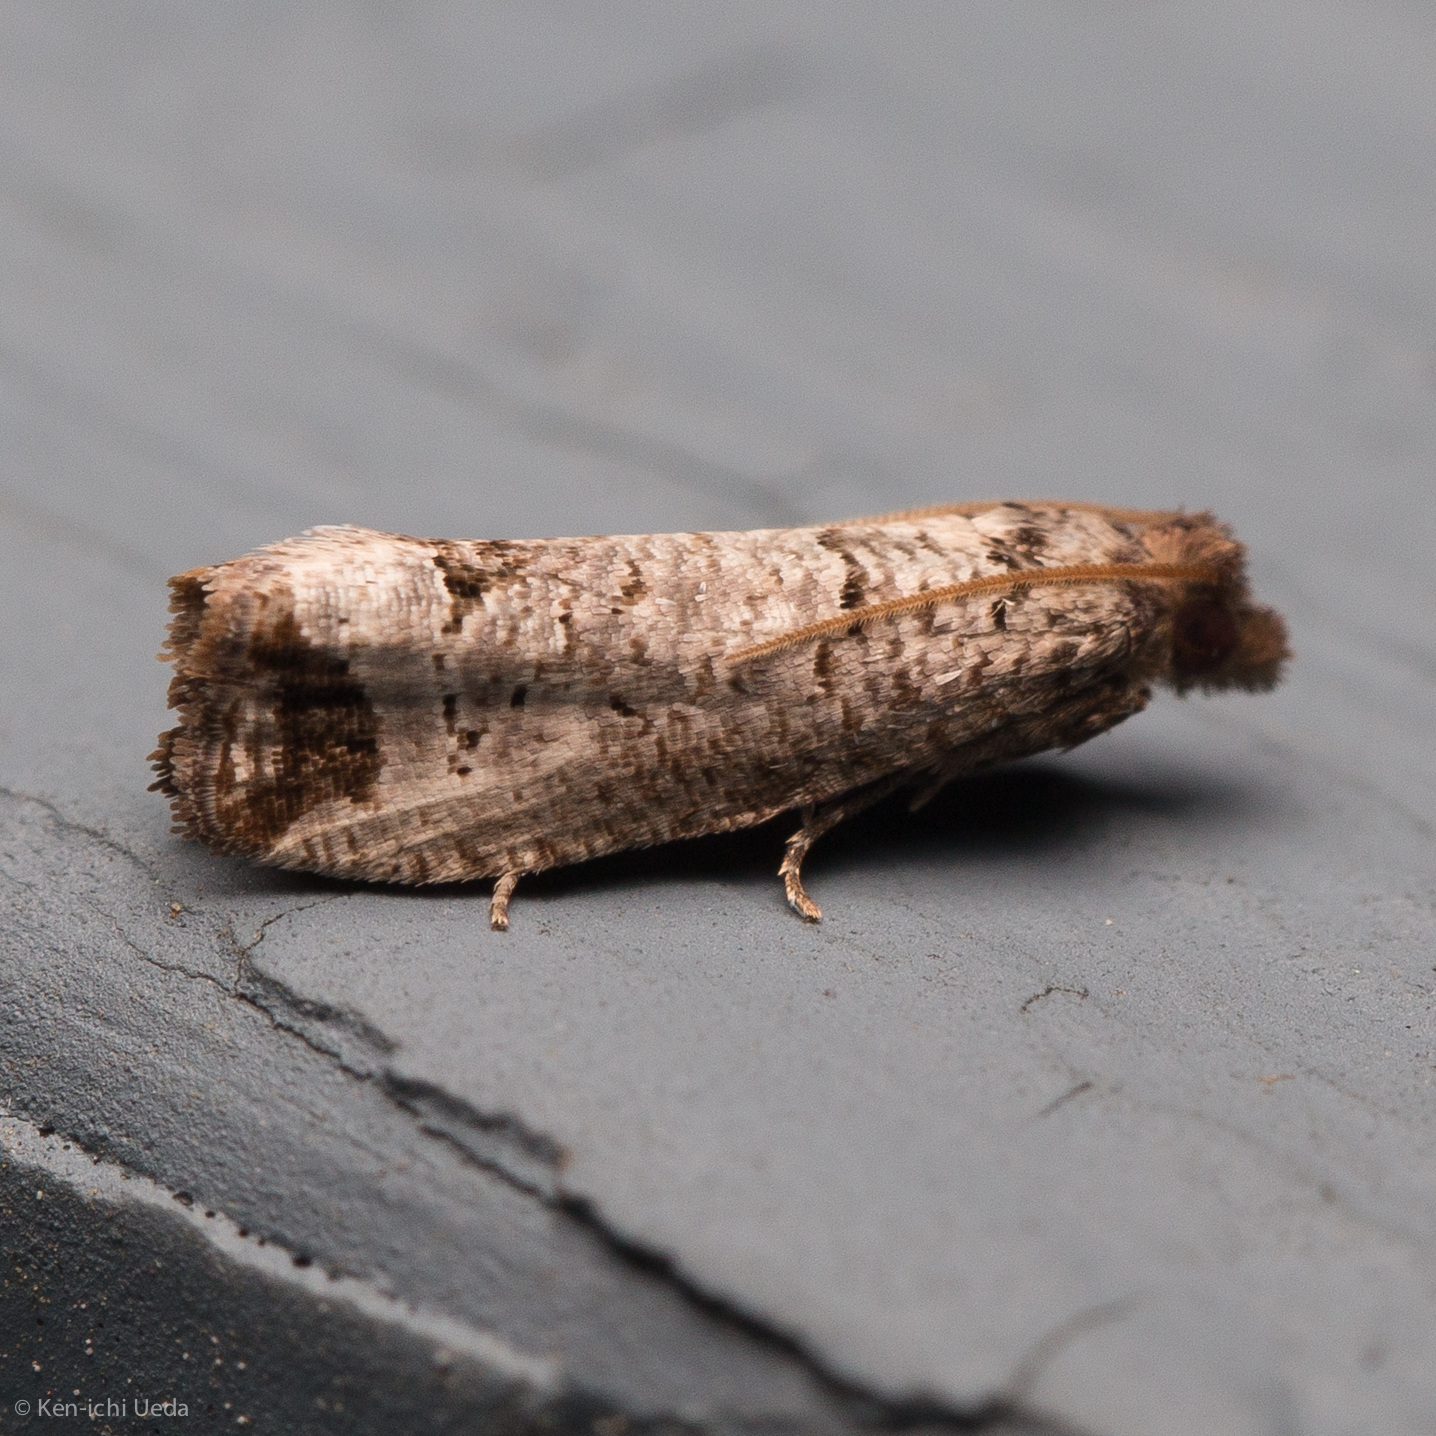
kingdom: Animalia
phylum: Arthropoda
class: Insecta
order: Lepidoptera
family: Tortricidae
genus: Notocelia
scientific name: Notocelia culminana
